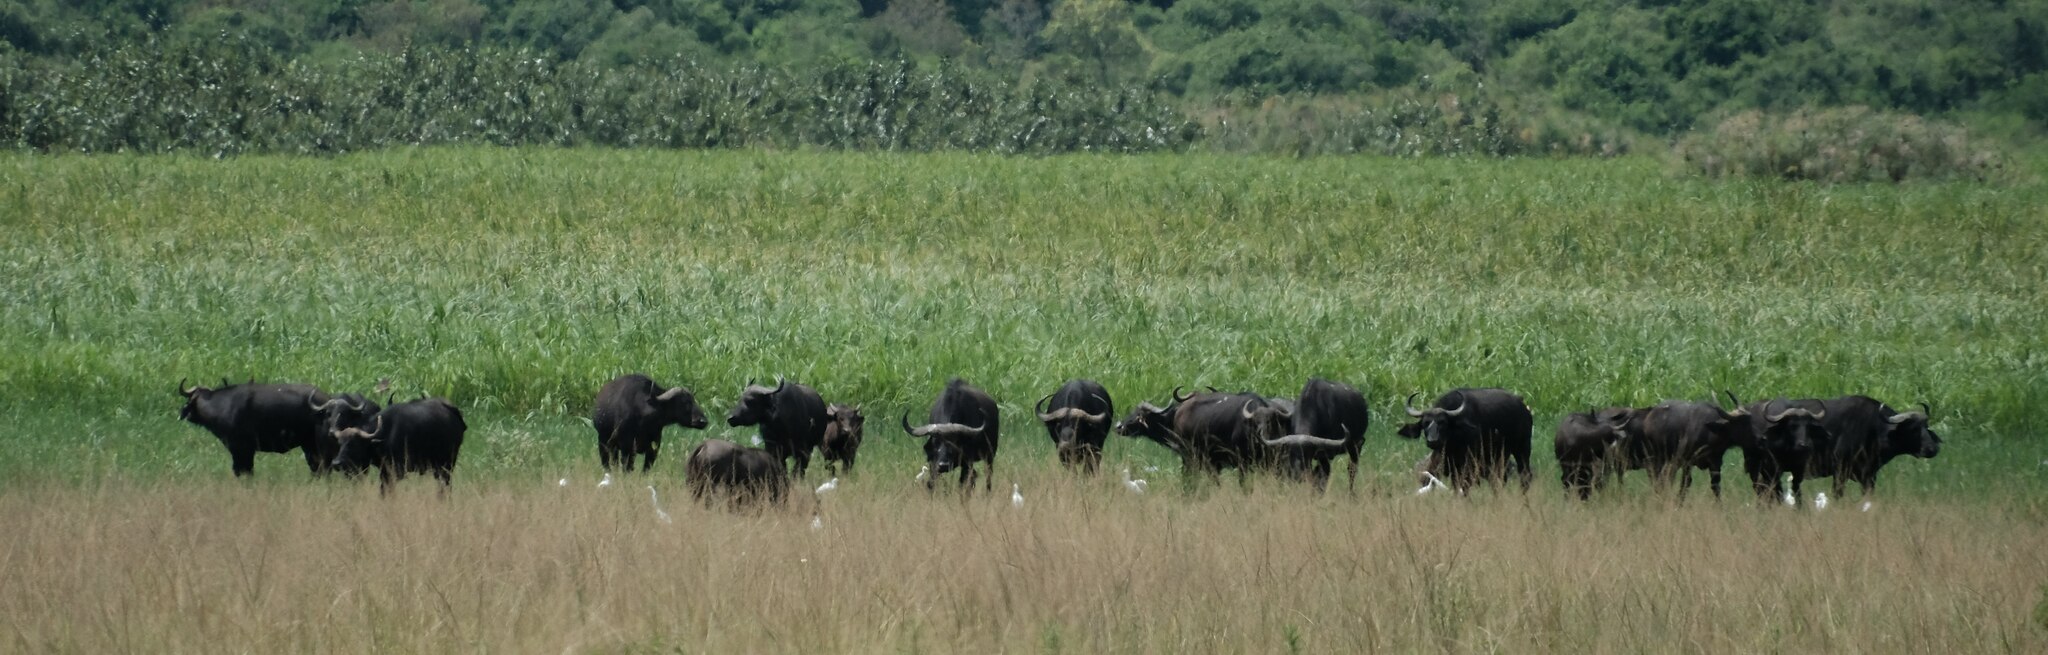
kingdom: Animalia
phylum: Chordata
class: Mammalia
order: Artiodactyla
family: Bovidae
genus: Syncerus
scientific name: Syncerus caffer
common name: African buffalo
